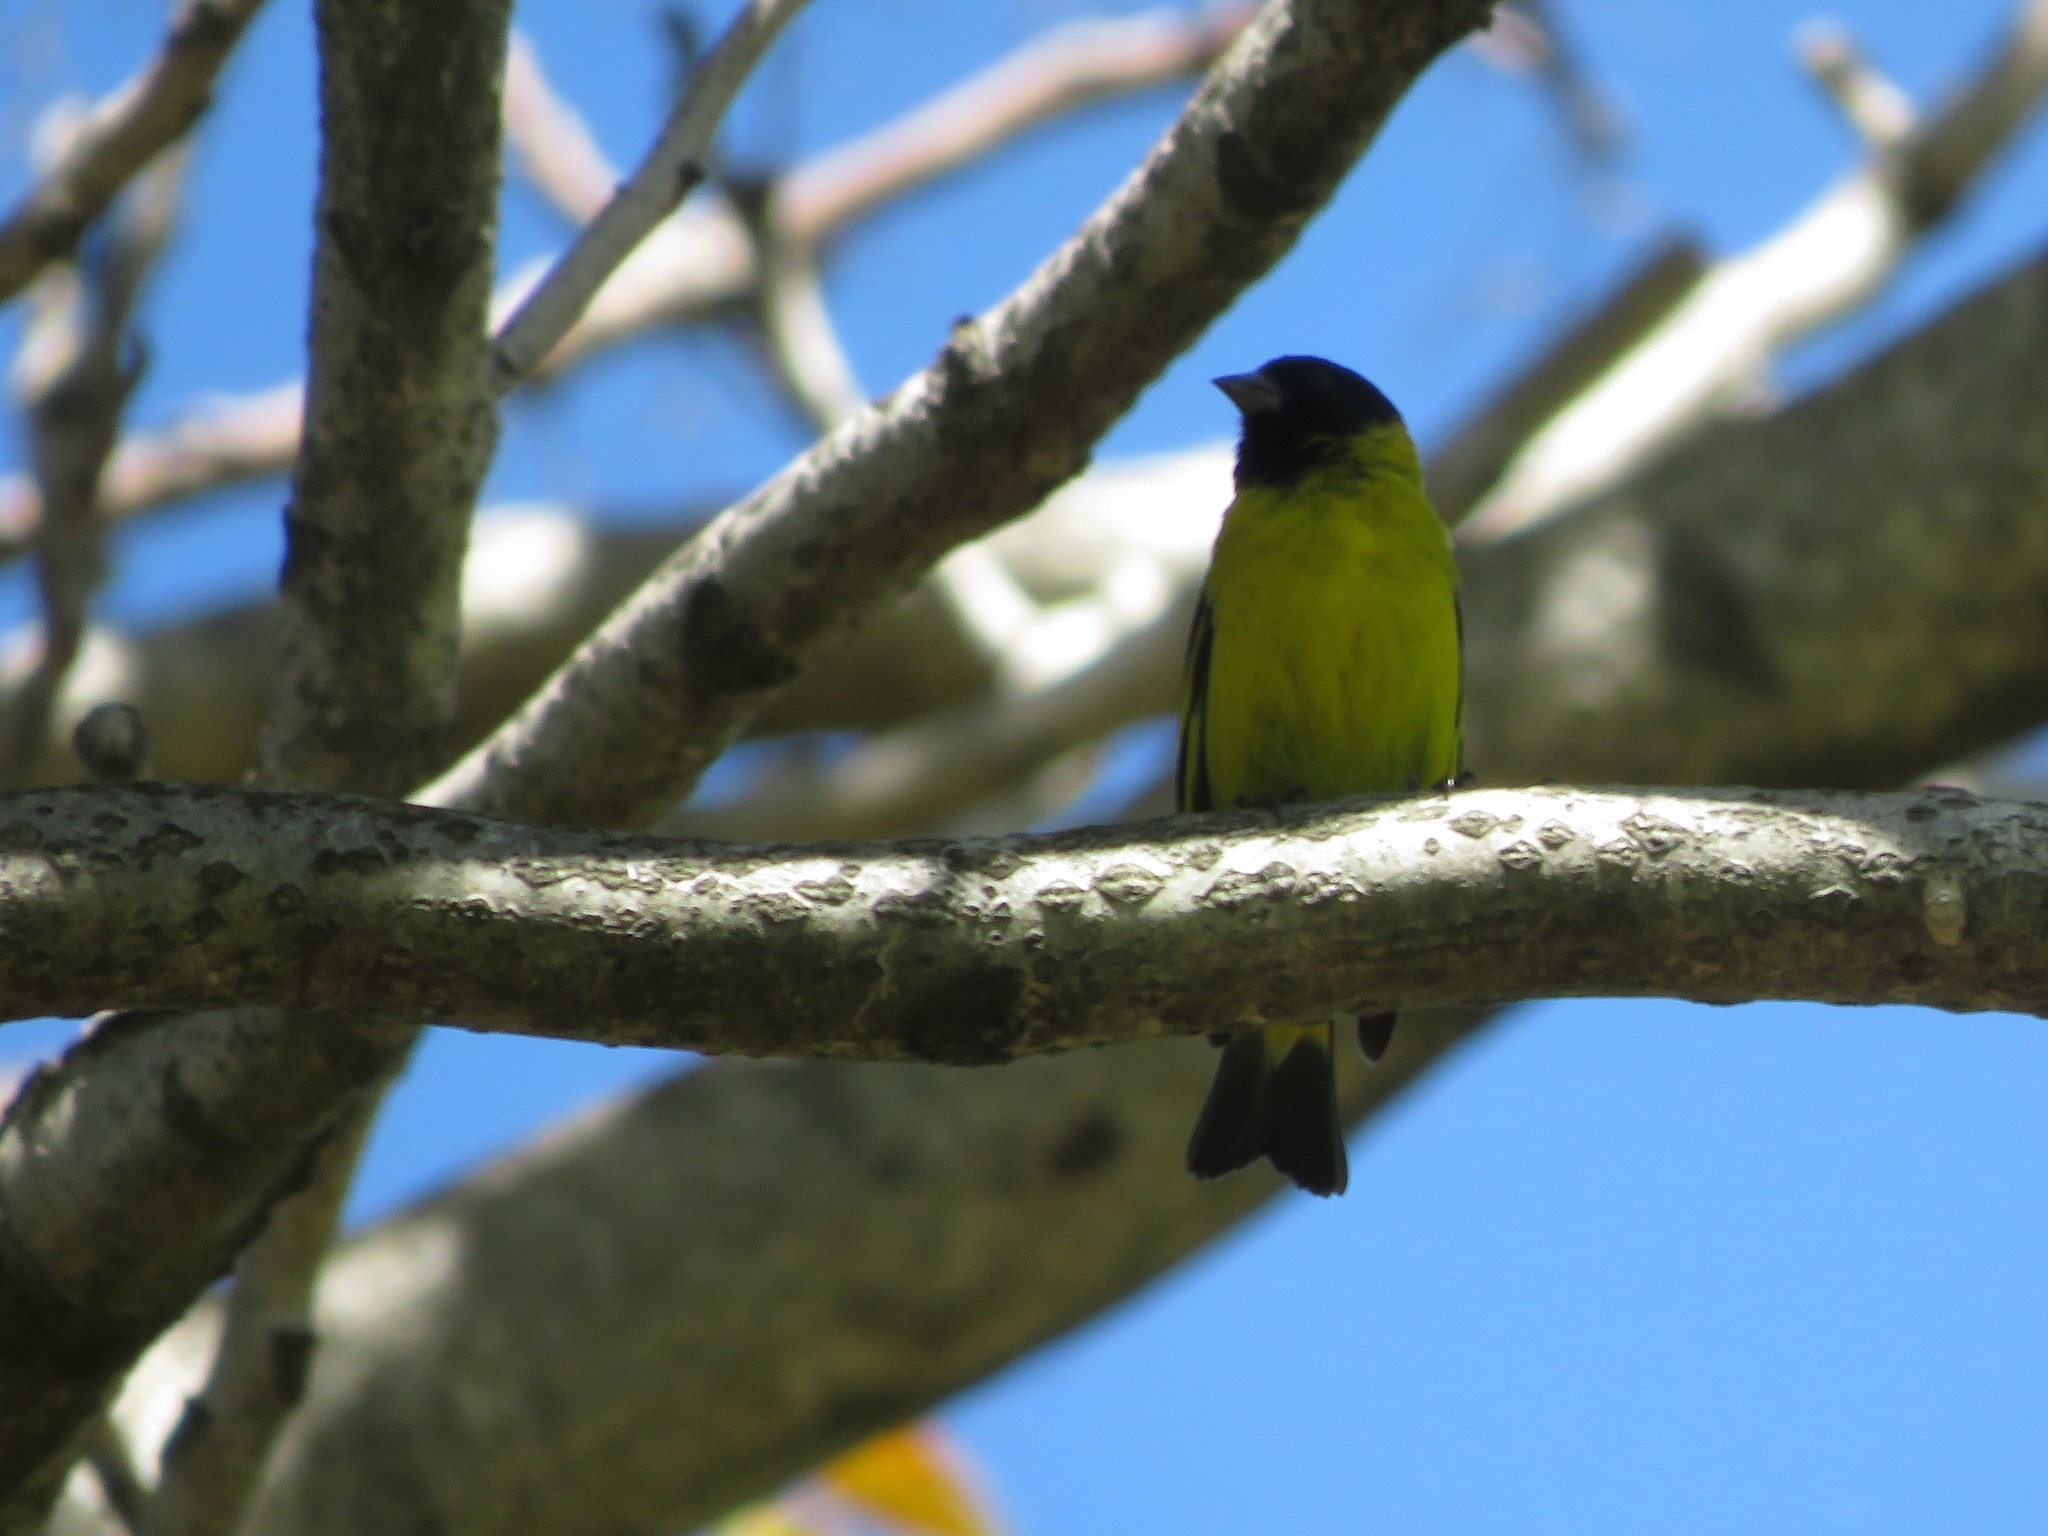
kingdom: Animalia
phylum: Chordata
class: Aves
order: Passeriformes
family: Fringillidae
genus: Spinus
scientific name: Spinus magellanicus
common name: Hooded siskin
